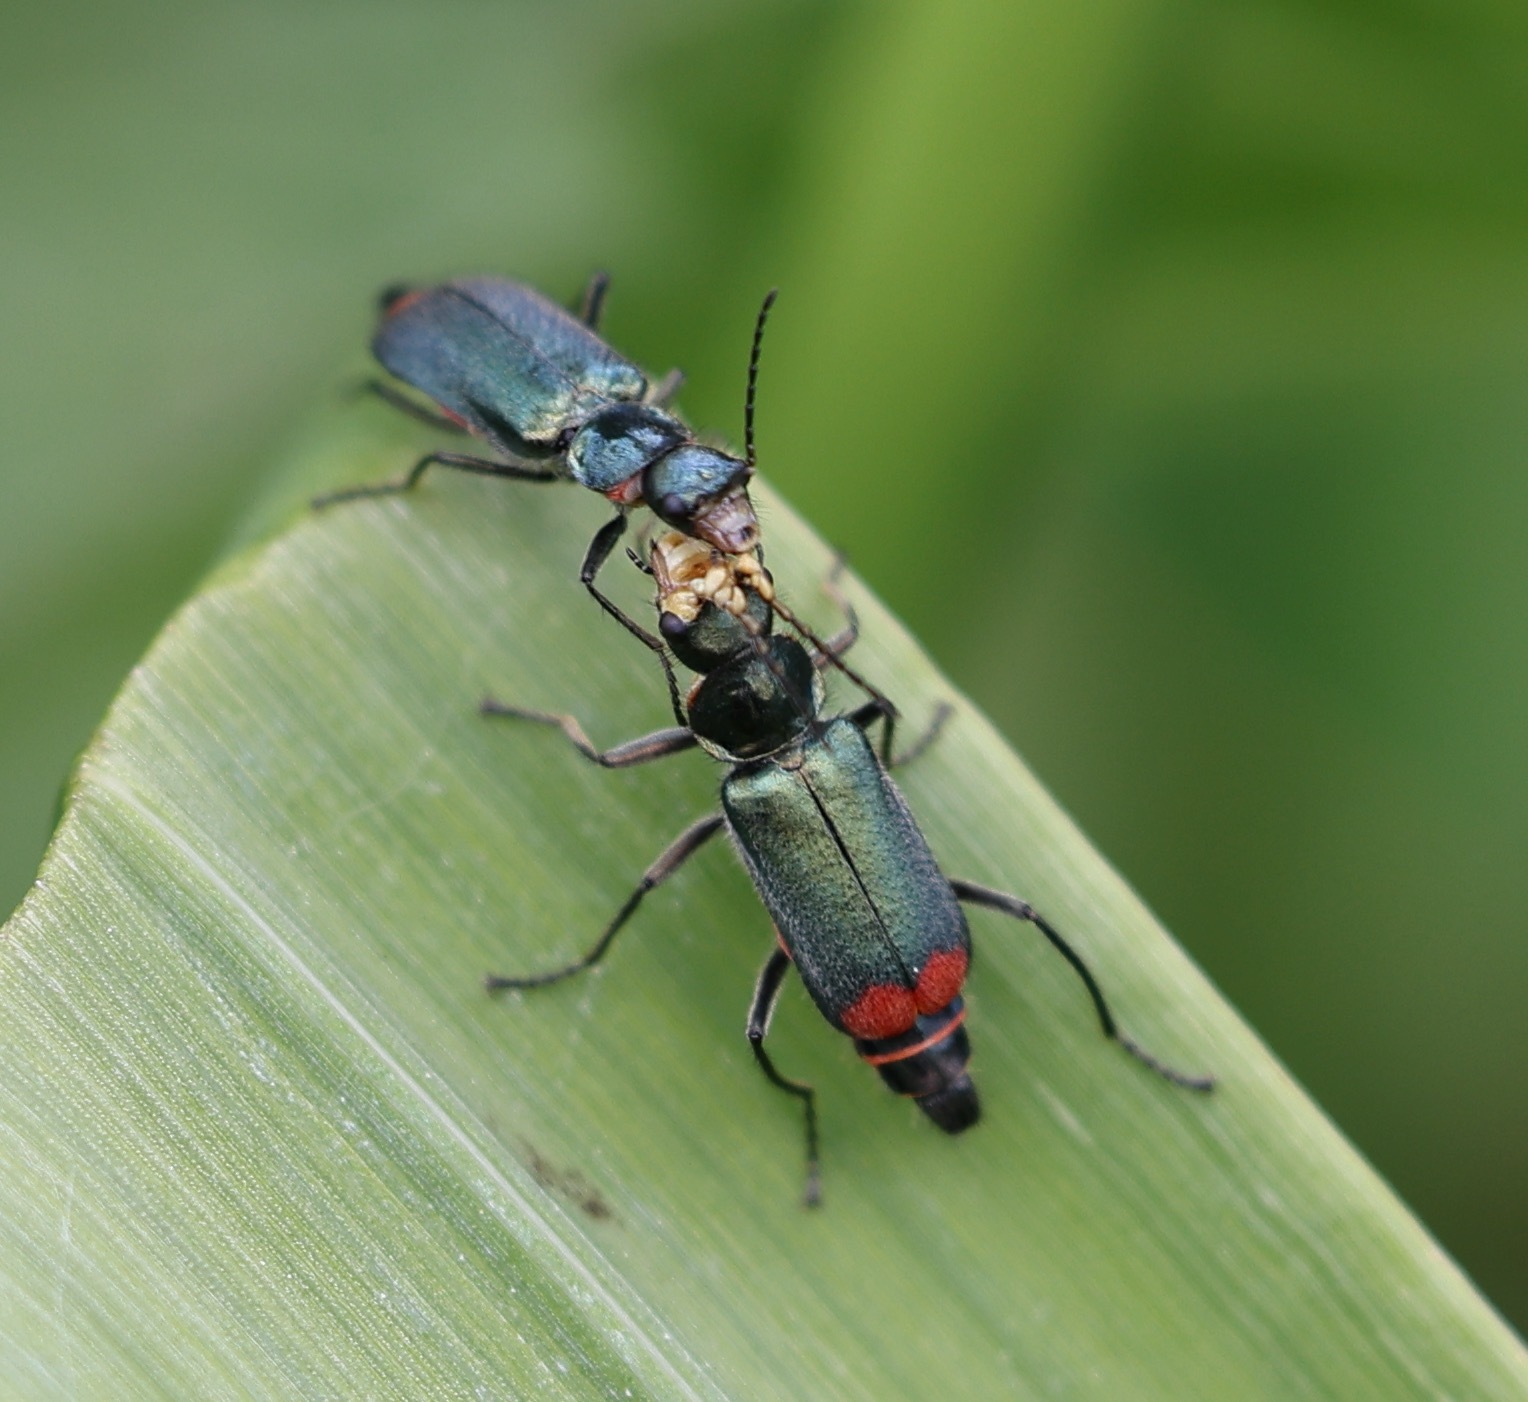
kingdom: Animalia
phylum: Arthropoda
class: Insecta
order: Coleoptera
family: Melyridae
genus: Malachius
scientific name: Malachius bipustulatus
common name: Malachite beetle
